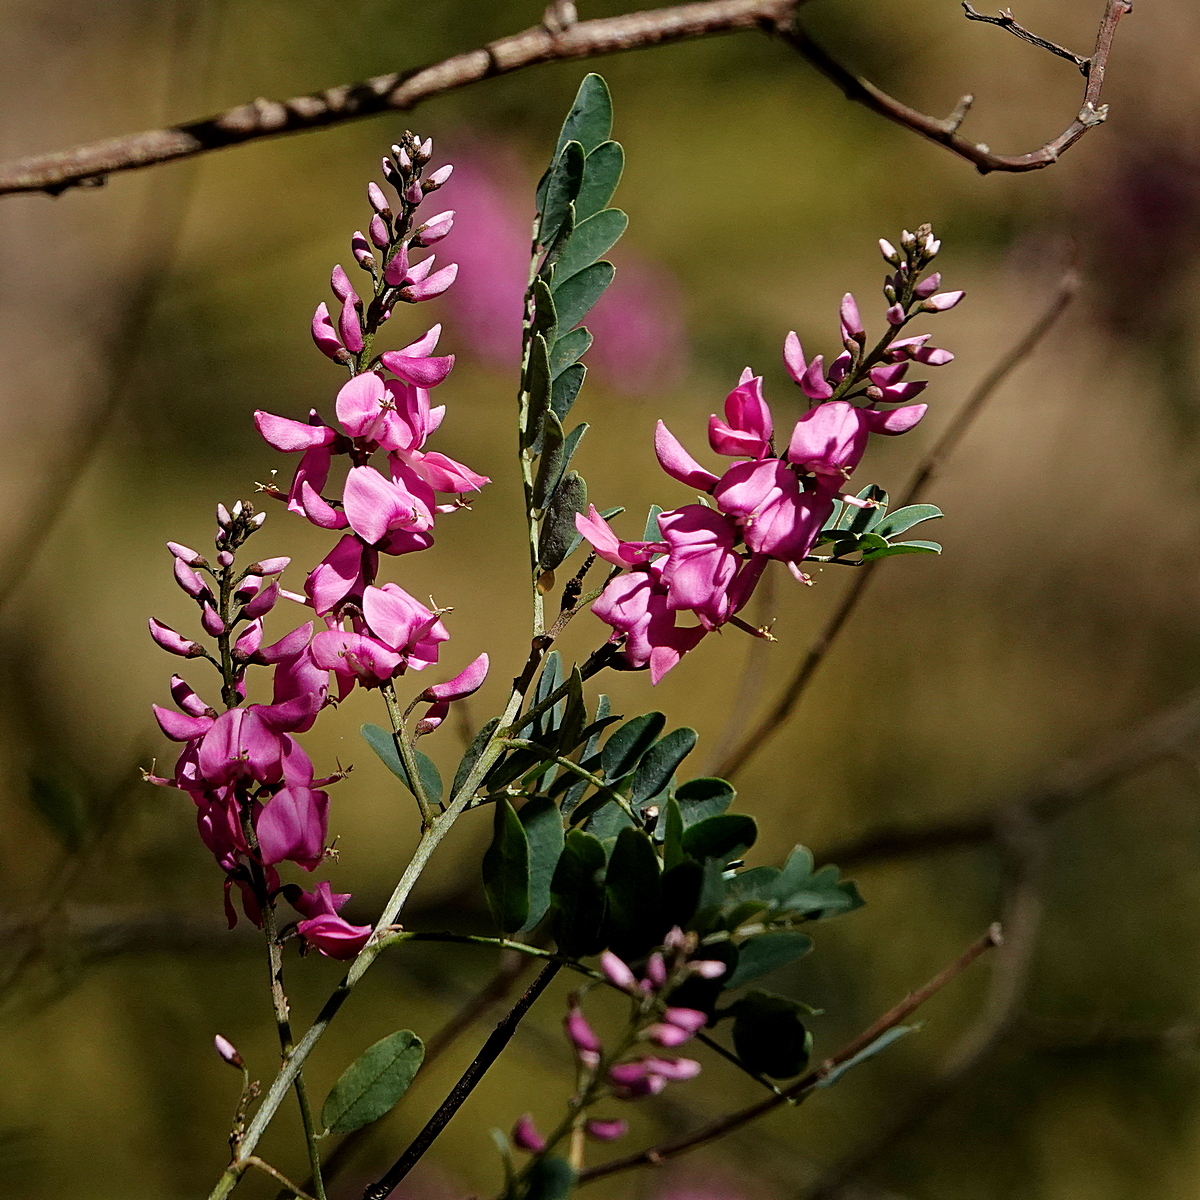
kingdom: Plantae
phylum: Tracheophyta
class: Magnoliopsida
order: Fabales
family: Fabaceae
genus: Indigofera
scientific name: Indigofera australis
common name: Australian indigo
